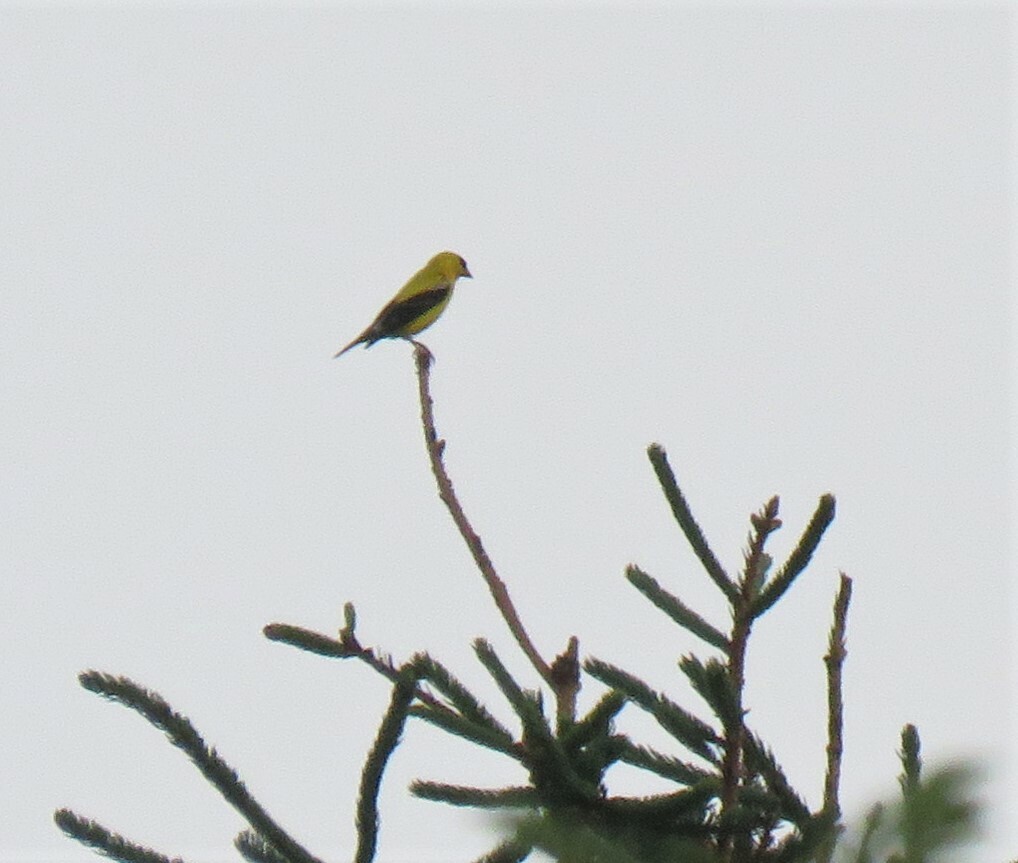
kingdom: Animalia
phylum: Chordata
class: Aves
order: Passeriformes
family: Fringillidae
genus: Spinus
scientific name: Spinus tristis
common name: American goldfinch
